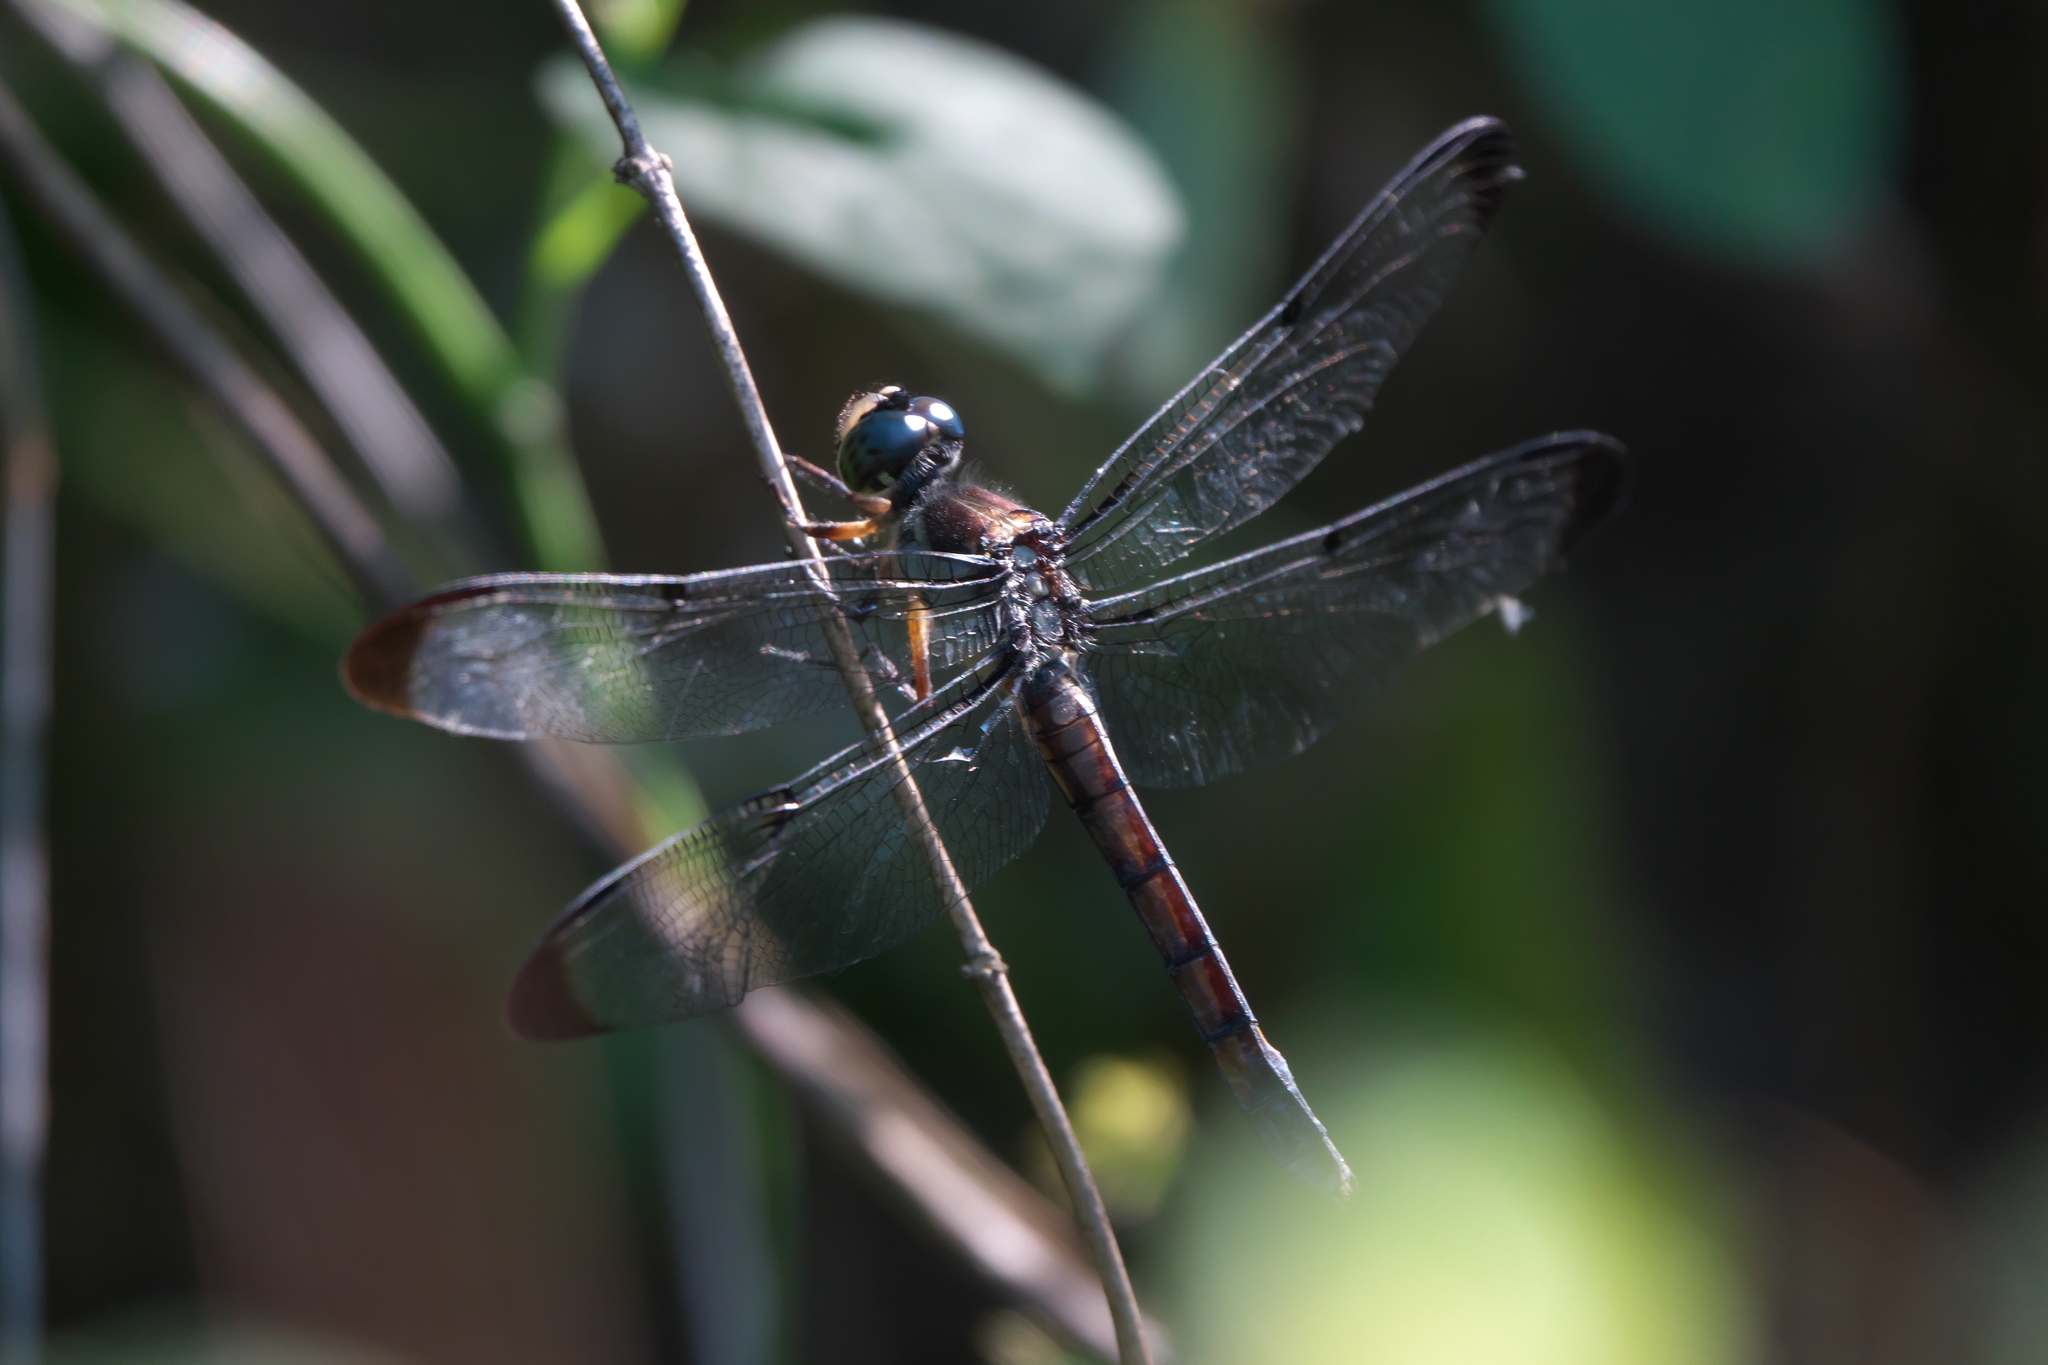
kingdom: Animalia
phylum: Arthropoda
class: Insecta
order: Odonata
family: Libellulidae
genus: Libellula
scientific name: Libellula vibrans
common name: Great blue skimmer
